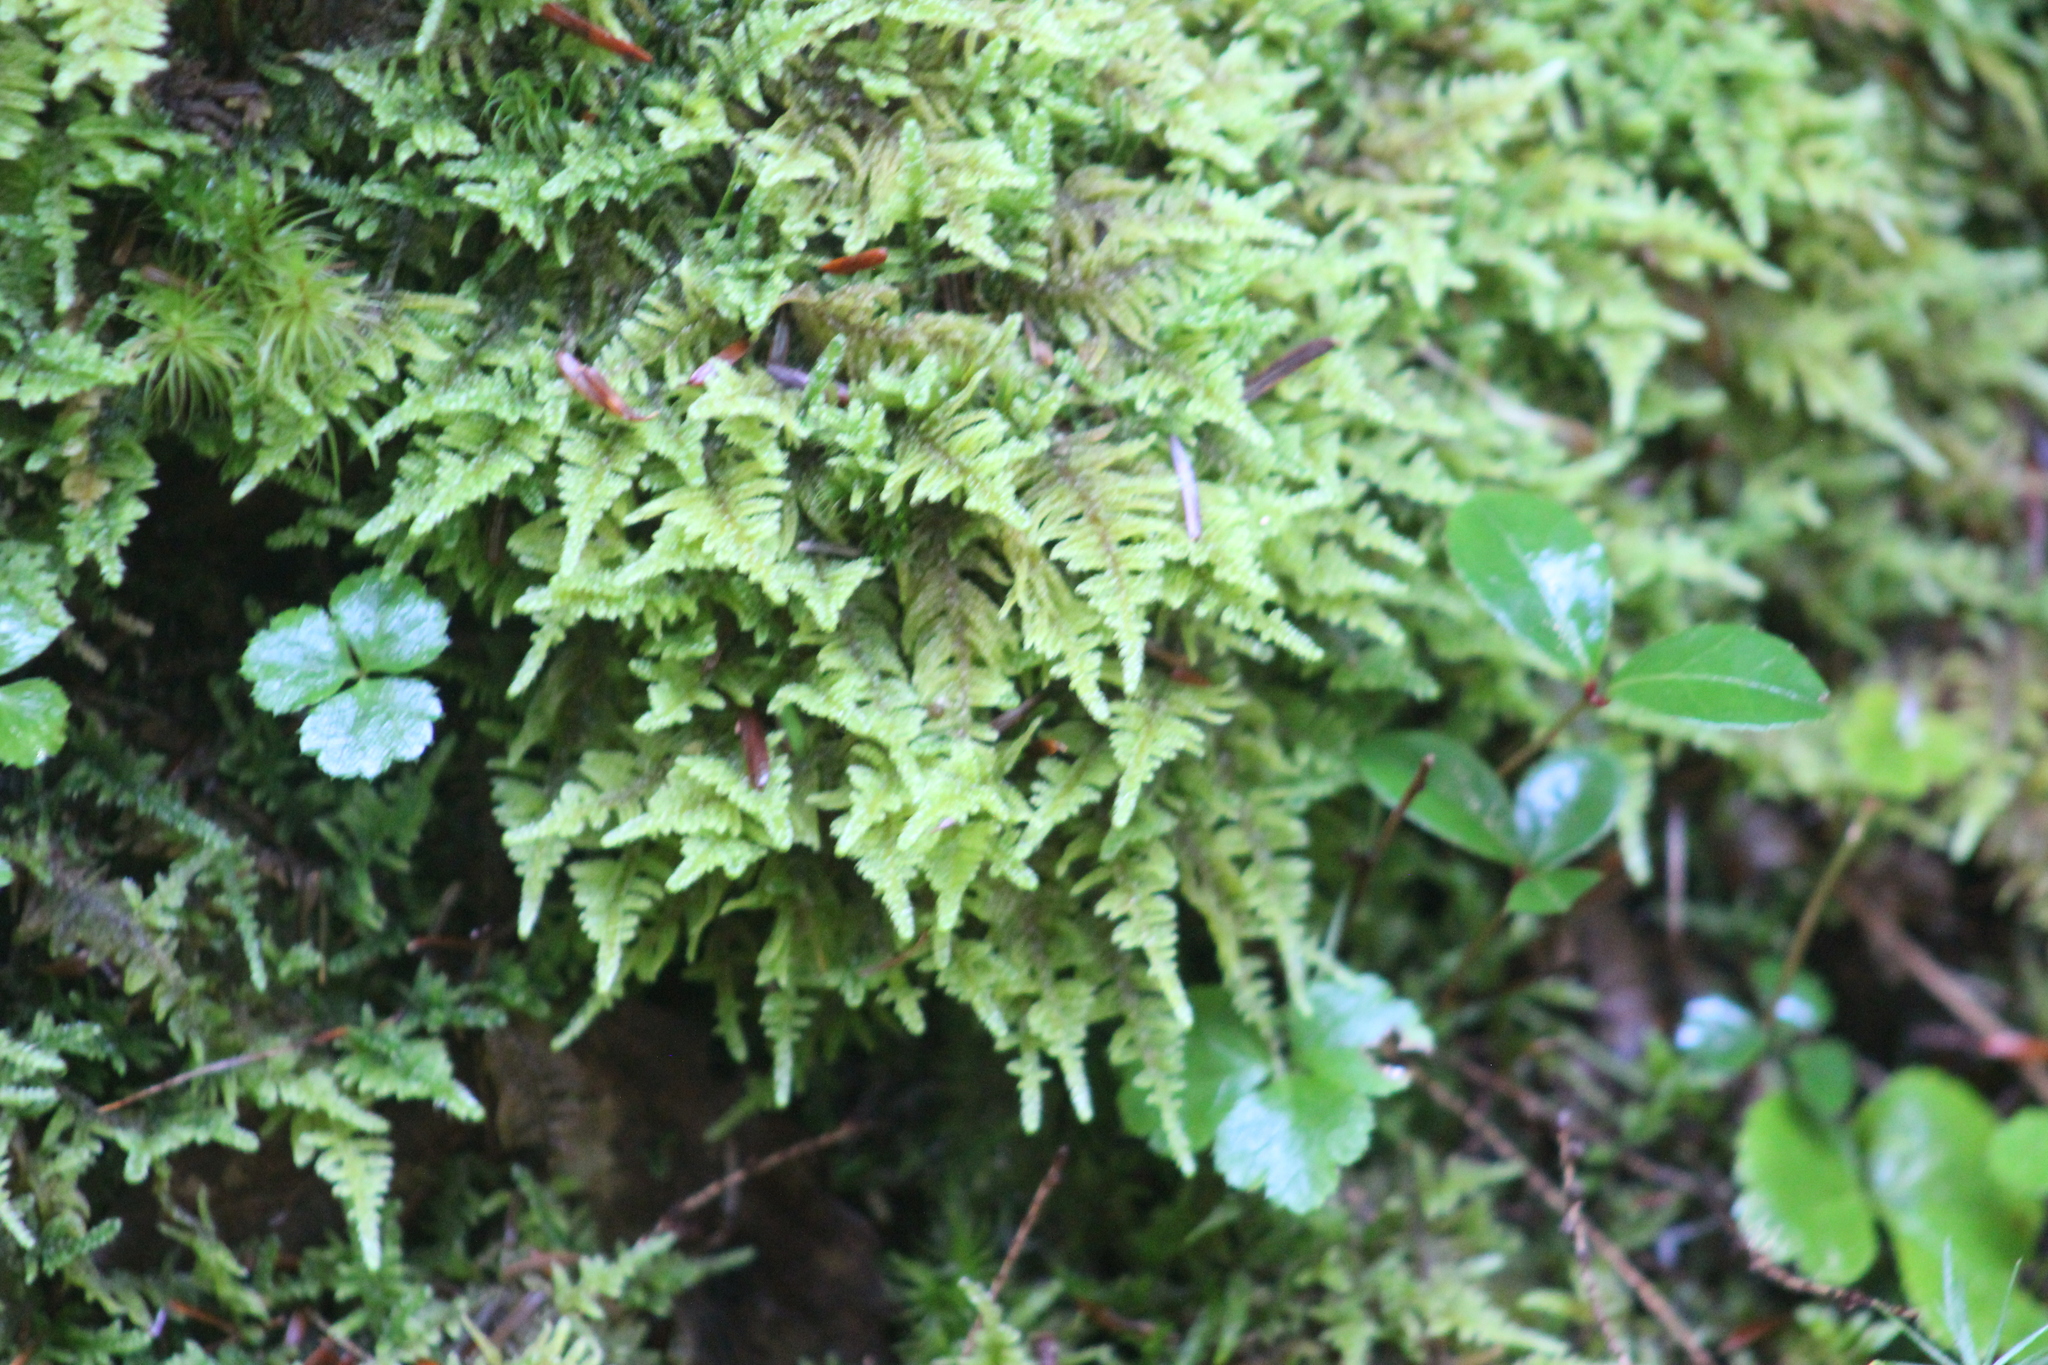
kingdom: Plantae
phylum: Bryophyta
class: Bryopsida
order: Hypnales
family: Callicladiaceae
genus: Callicladium
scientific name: Callicladium imponens
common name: Brocade moss
